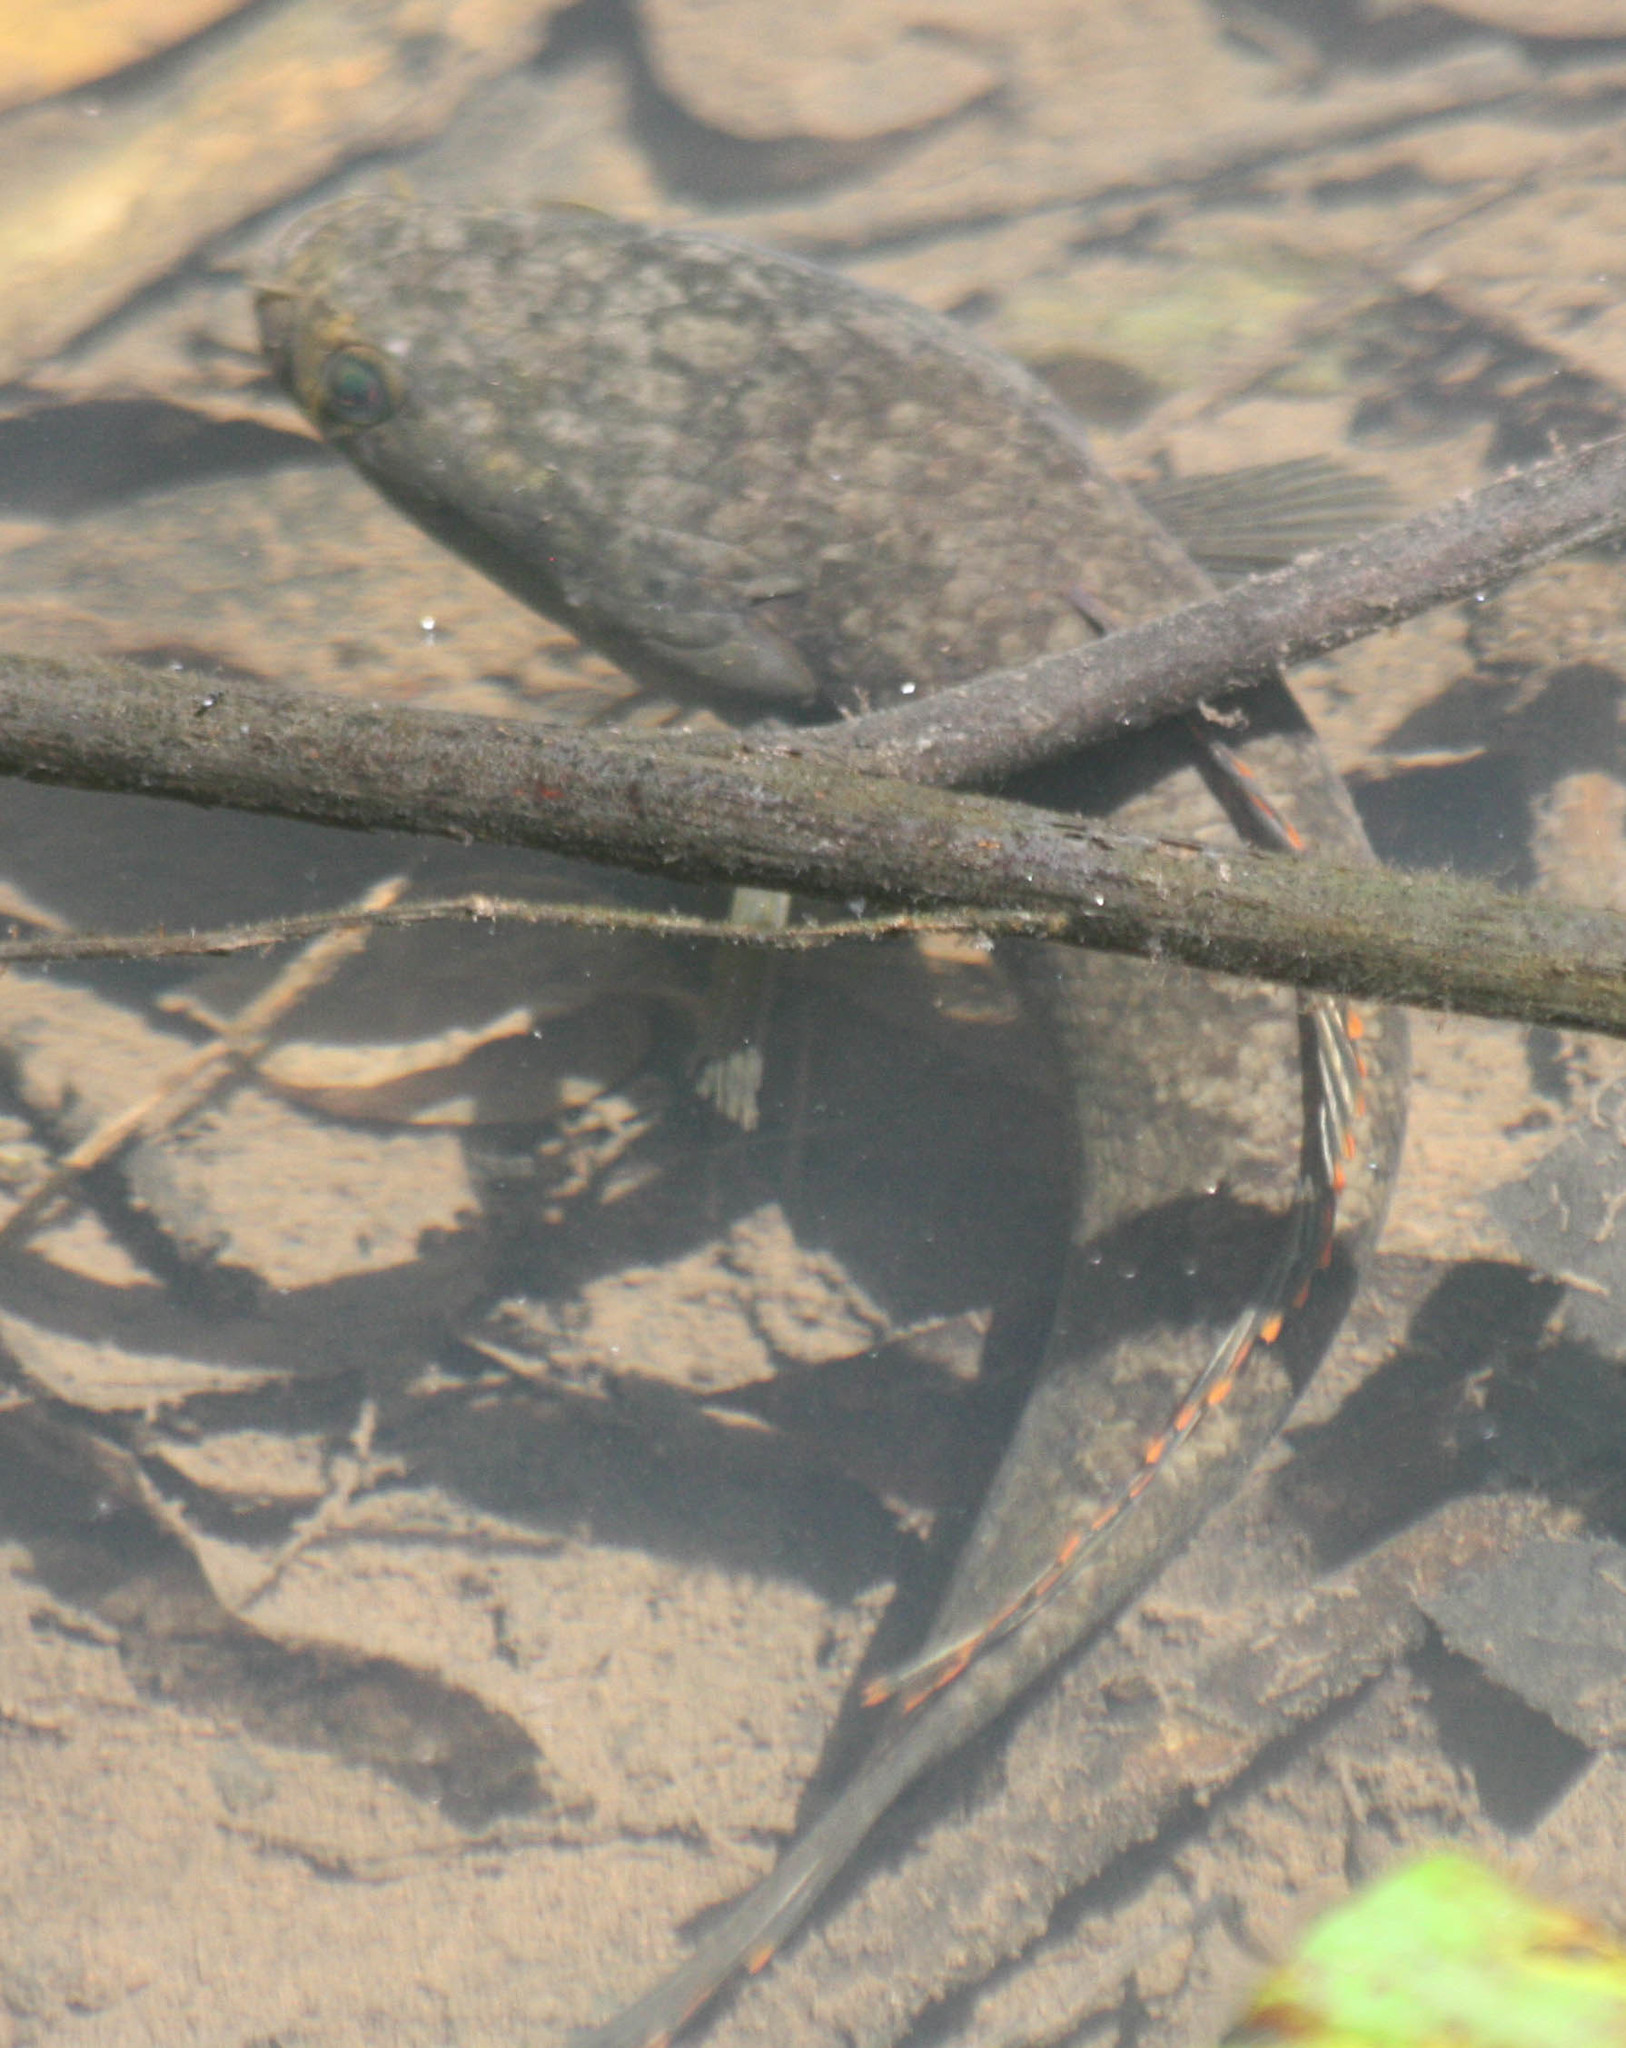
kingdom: Animalia
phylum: Chordata
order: Perciformes
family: Channidae
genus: Channa
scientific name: Channa gachua
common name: Dwarf snakehead
